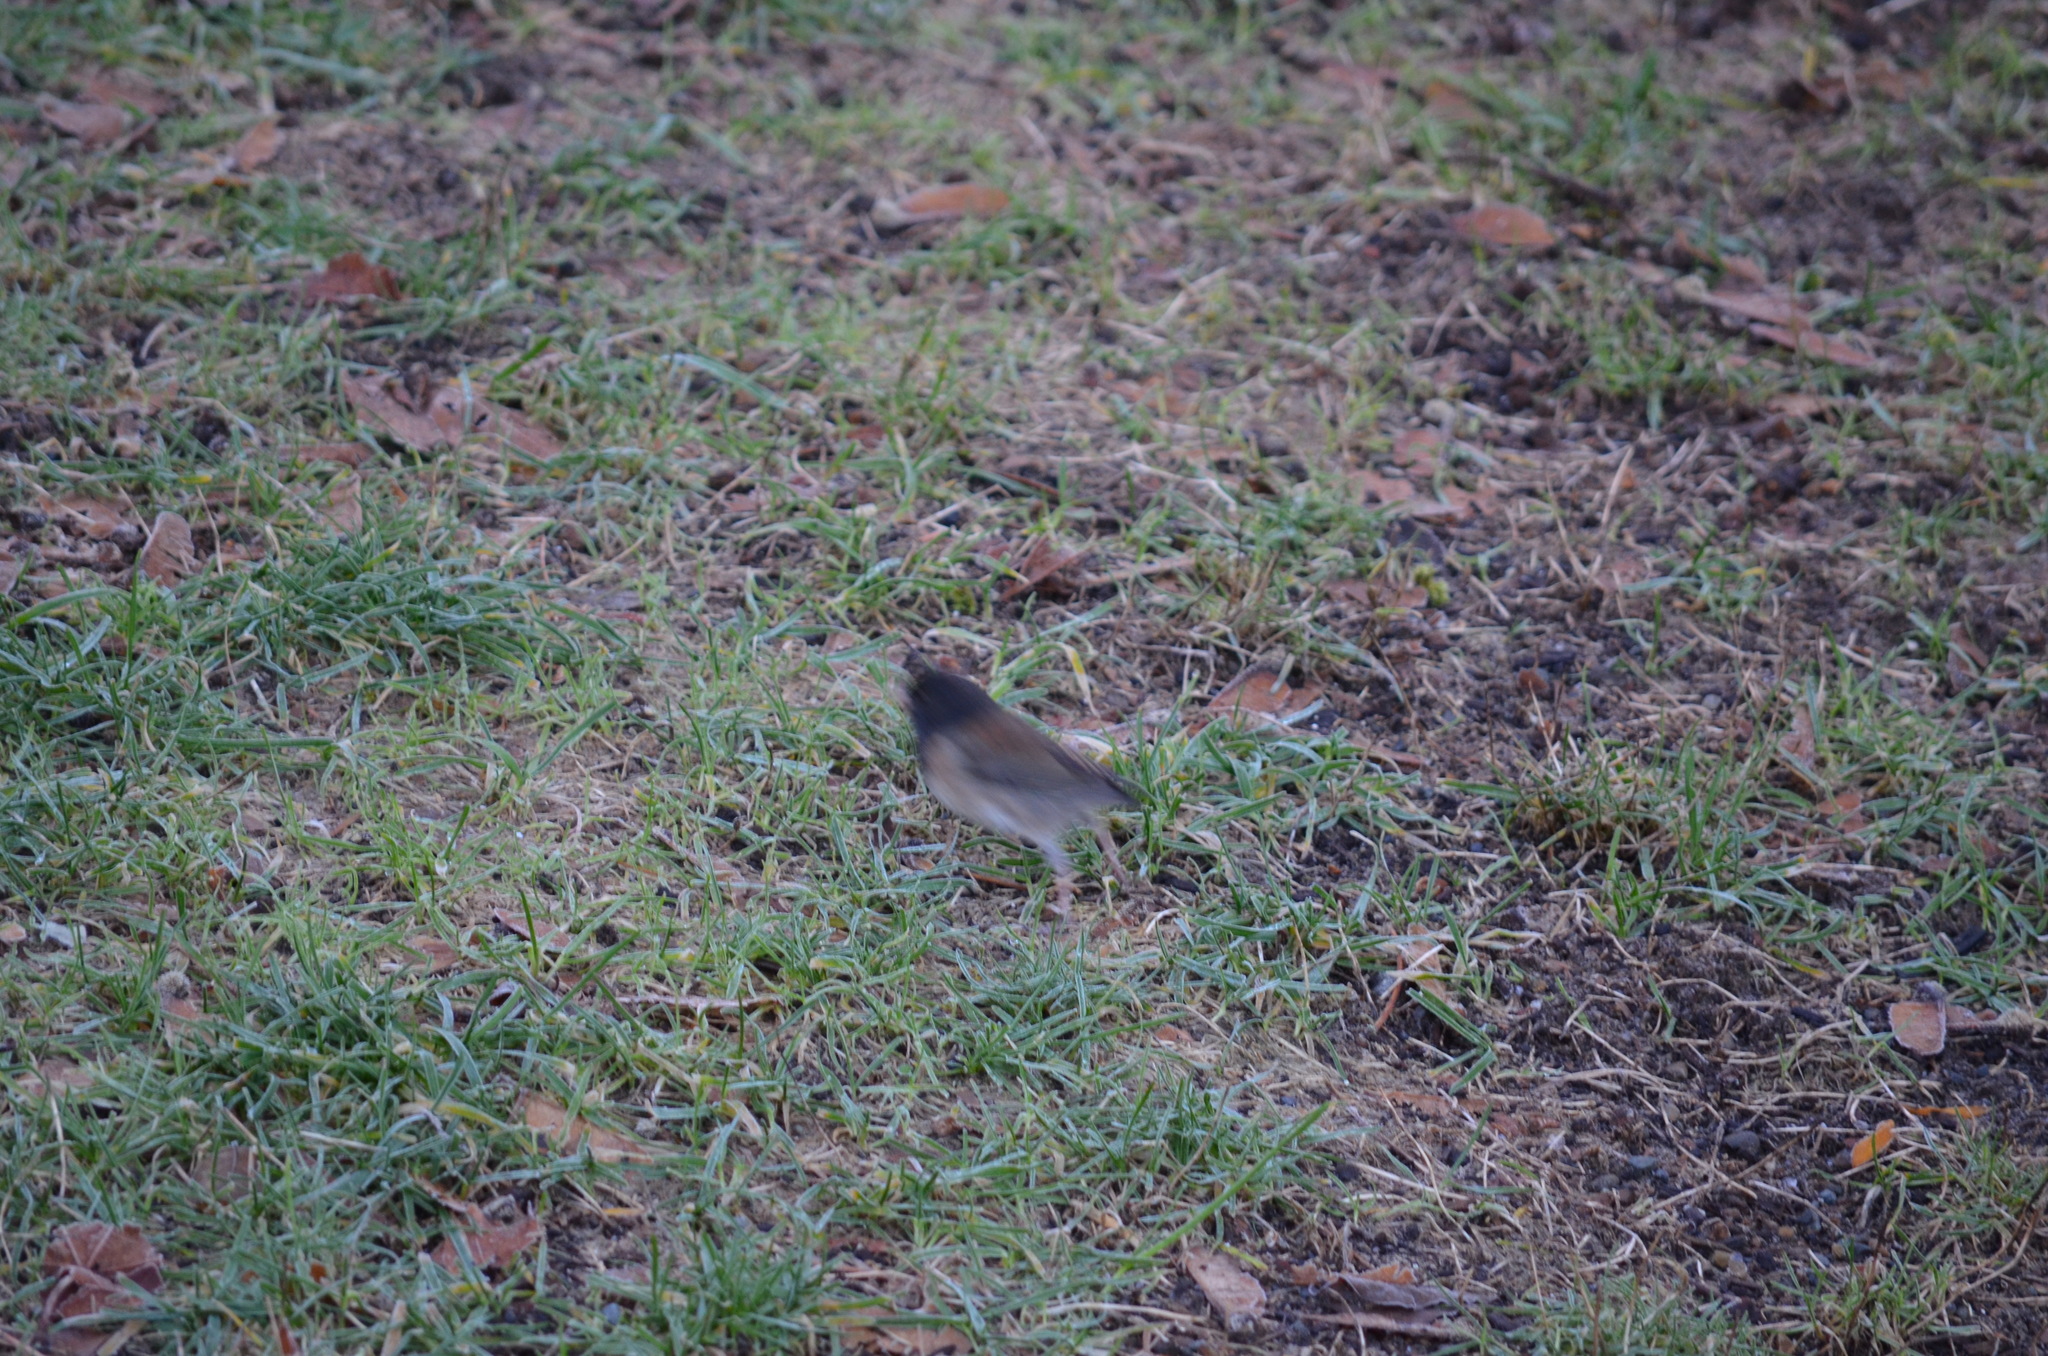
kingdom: Animalia
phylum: Chordata
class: Aves
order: Passeriformes
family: Passerellidae
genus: Junco
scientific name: Junco hyemalis
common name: Dark-eyed junco
